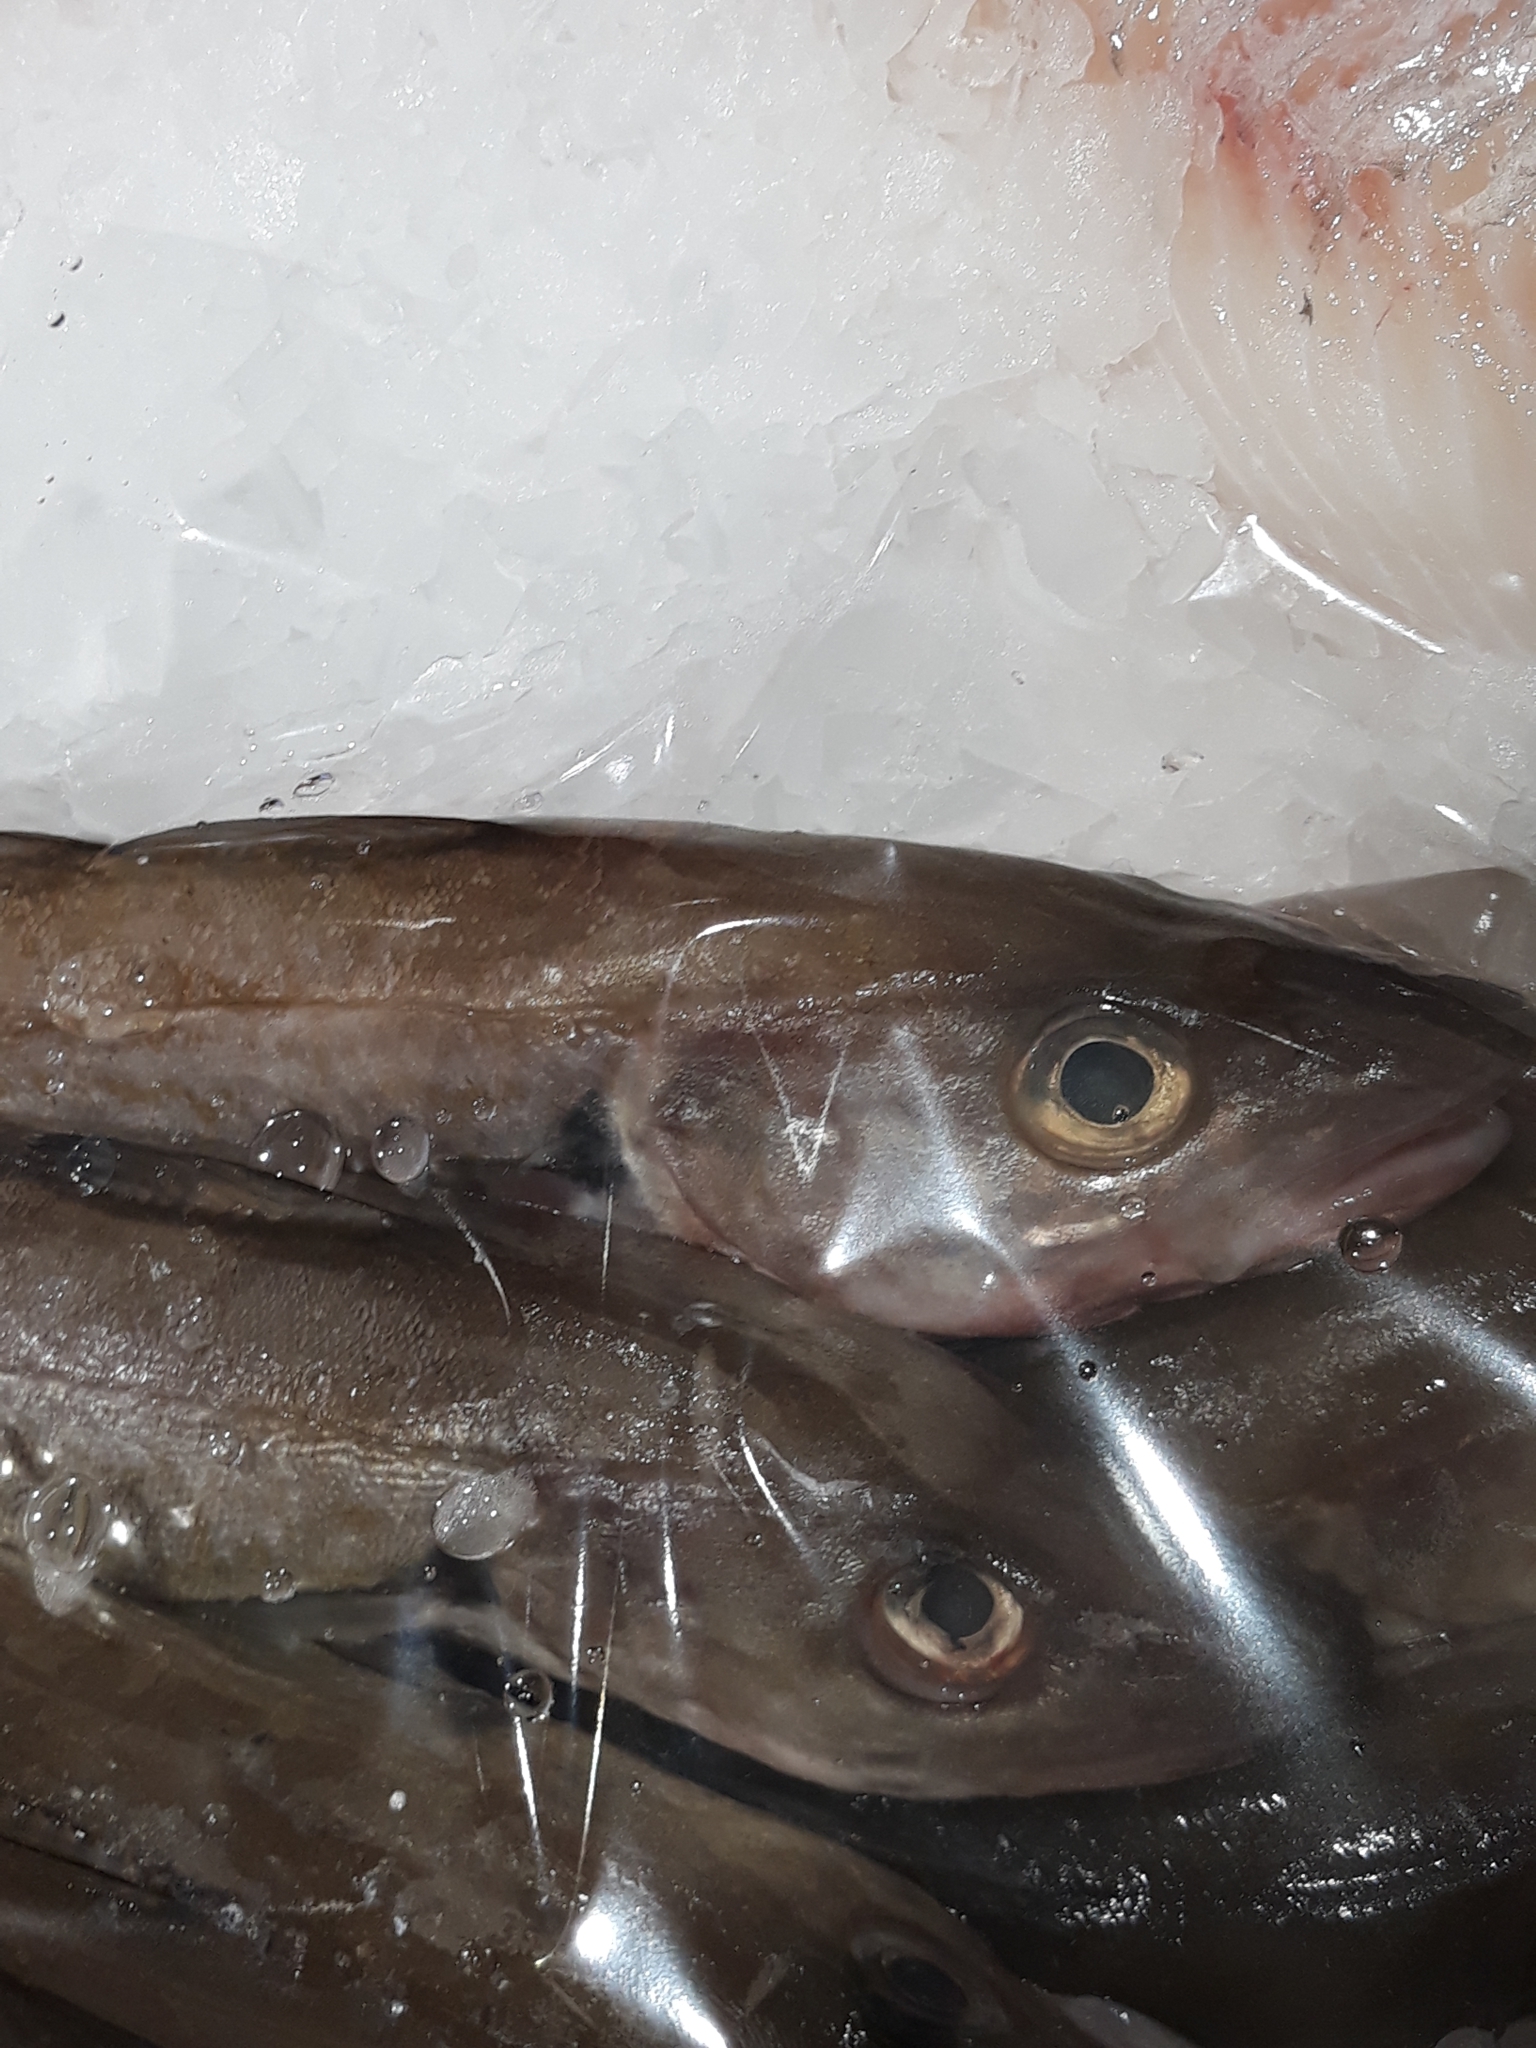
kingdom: Animalia
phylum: Chordata
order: Gadiformes
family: Gadidae
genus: Merlangius
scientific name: Merlangius merlangus
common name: Whiting
